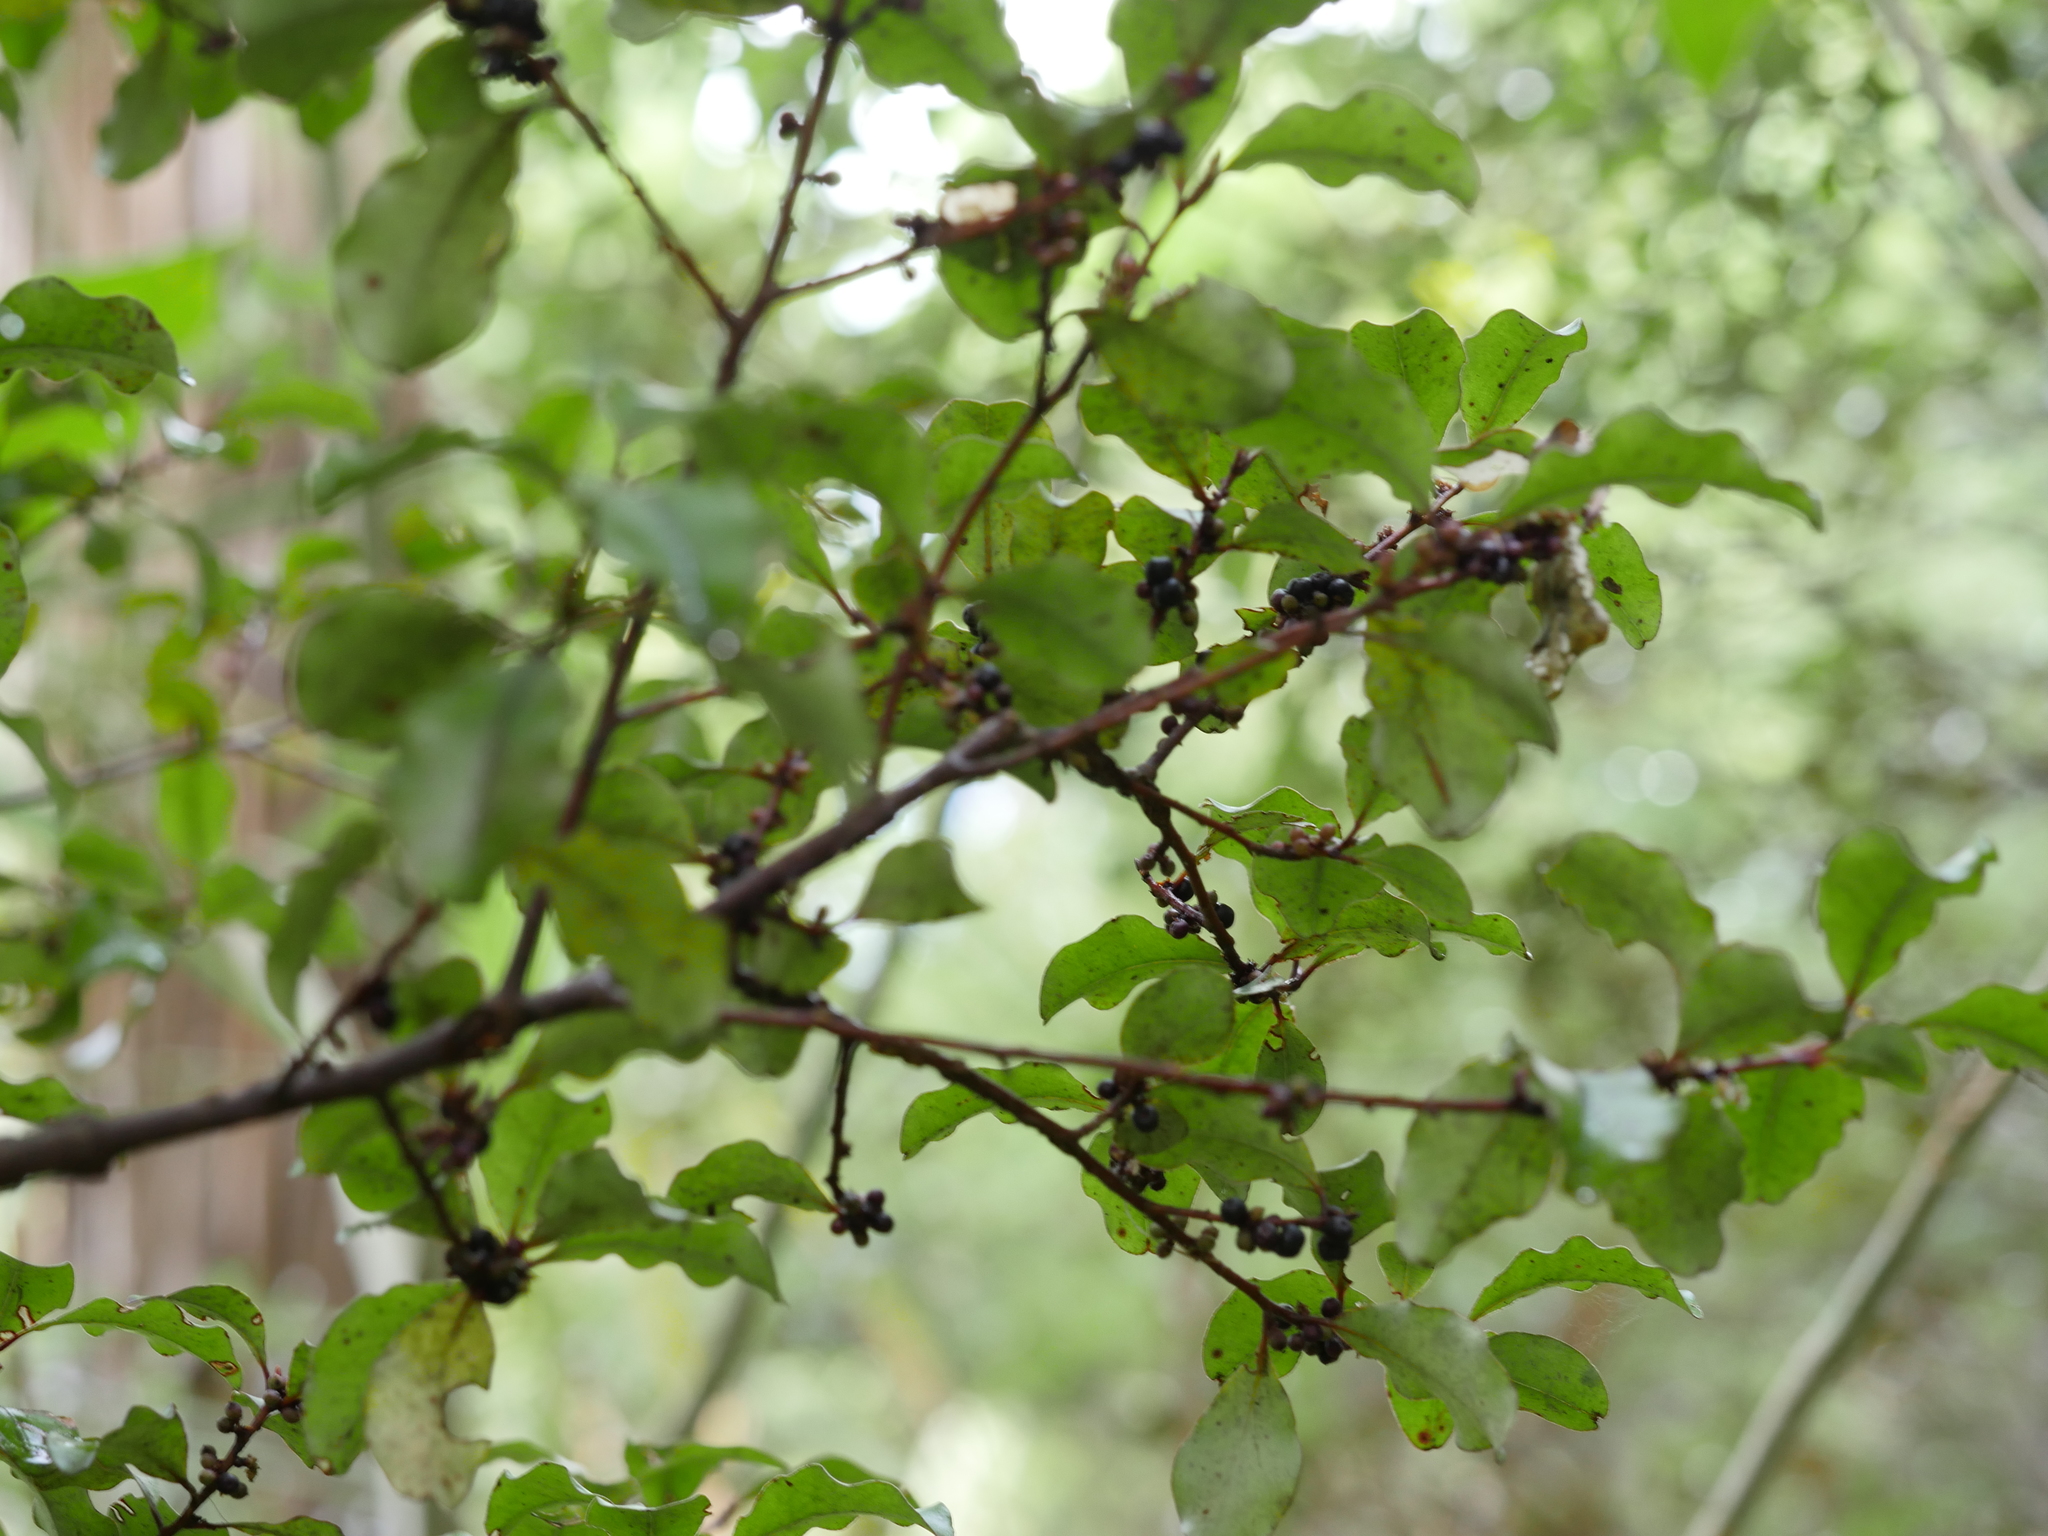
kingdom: Plantae
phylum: Tracheophyta
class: Magnoliopsida
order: Ericales
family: Primulaceae
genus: Myrsine
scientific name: Myrsine australis
